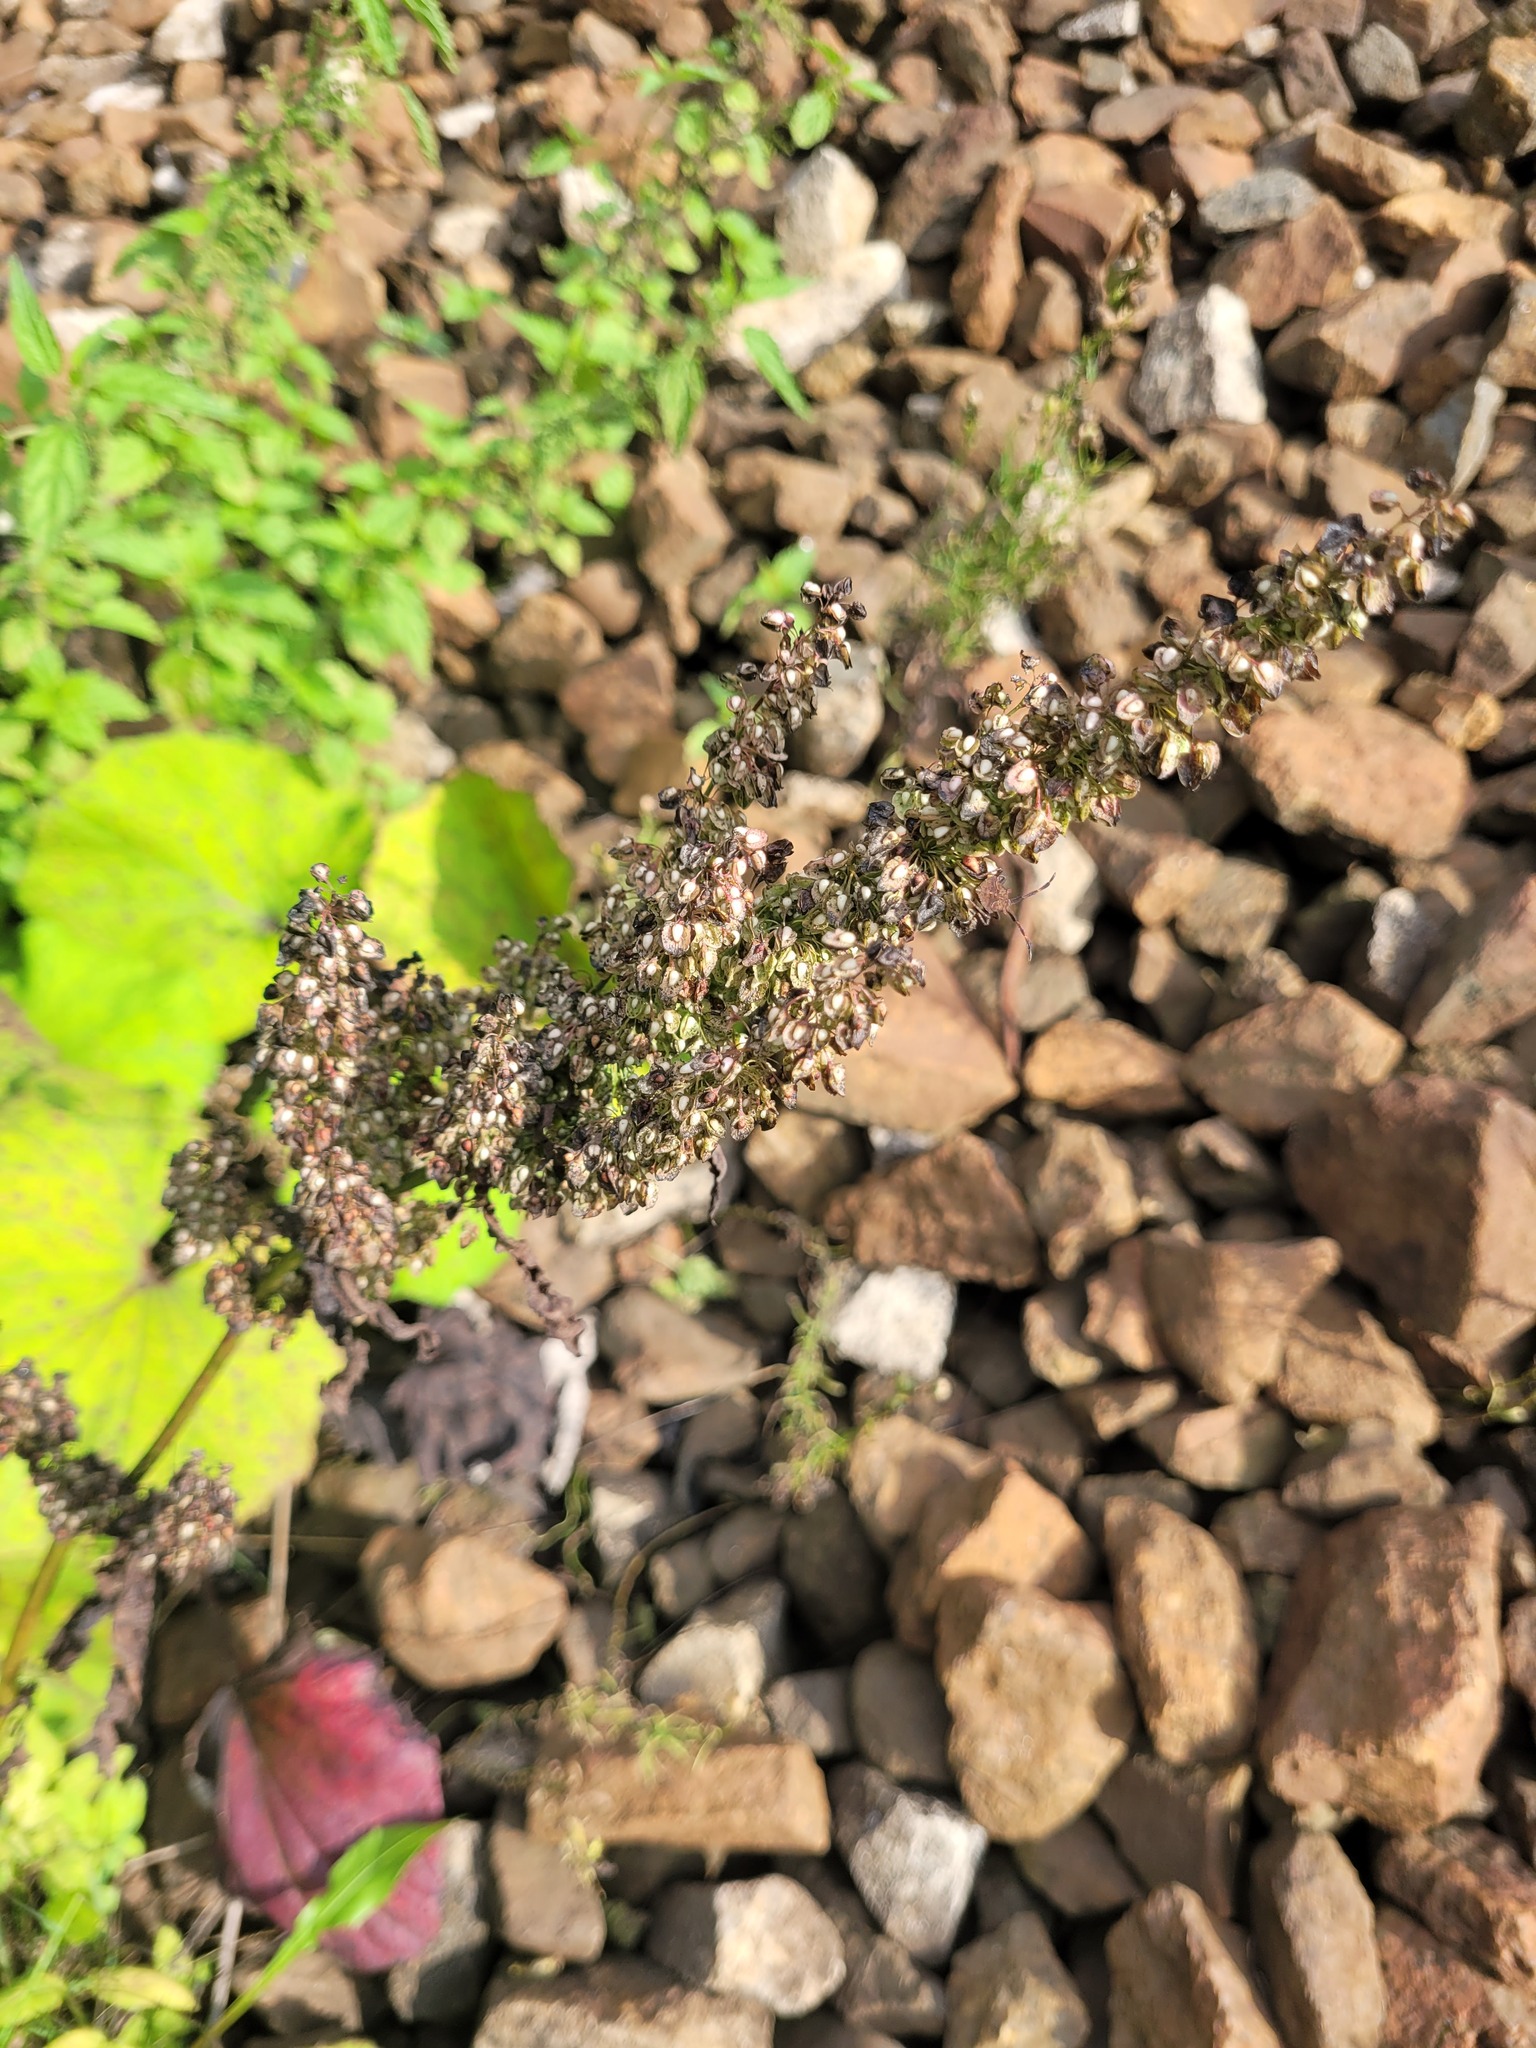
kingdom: Plantae
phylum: Tracheophyta
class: Magnoliopsida
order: Caryophyllales
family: Polygonaceae
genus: Rumex
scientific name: Rumex crispus
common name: Curled dock
